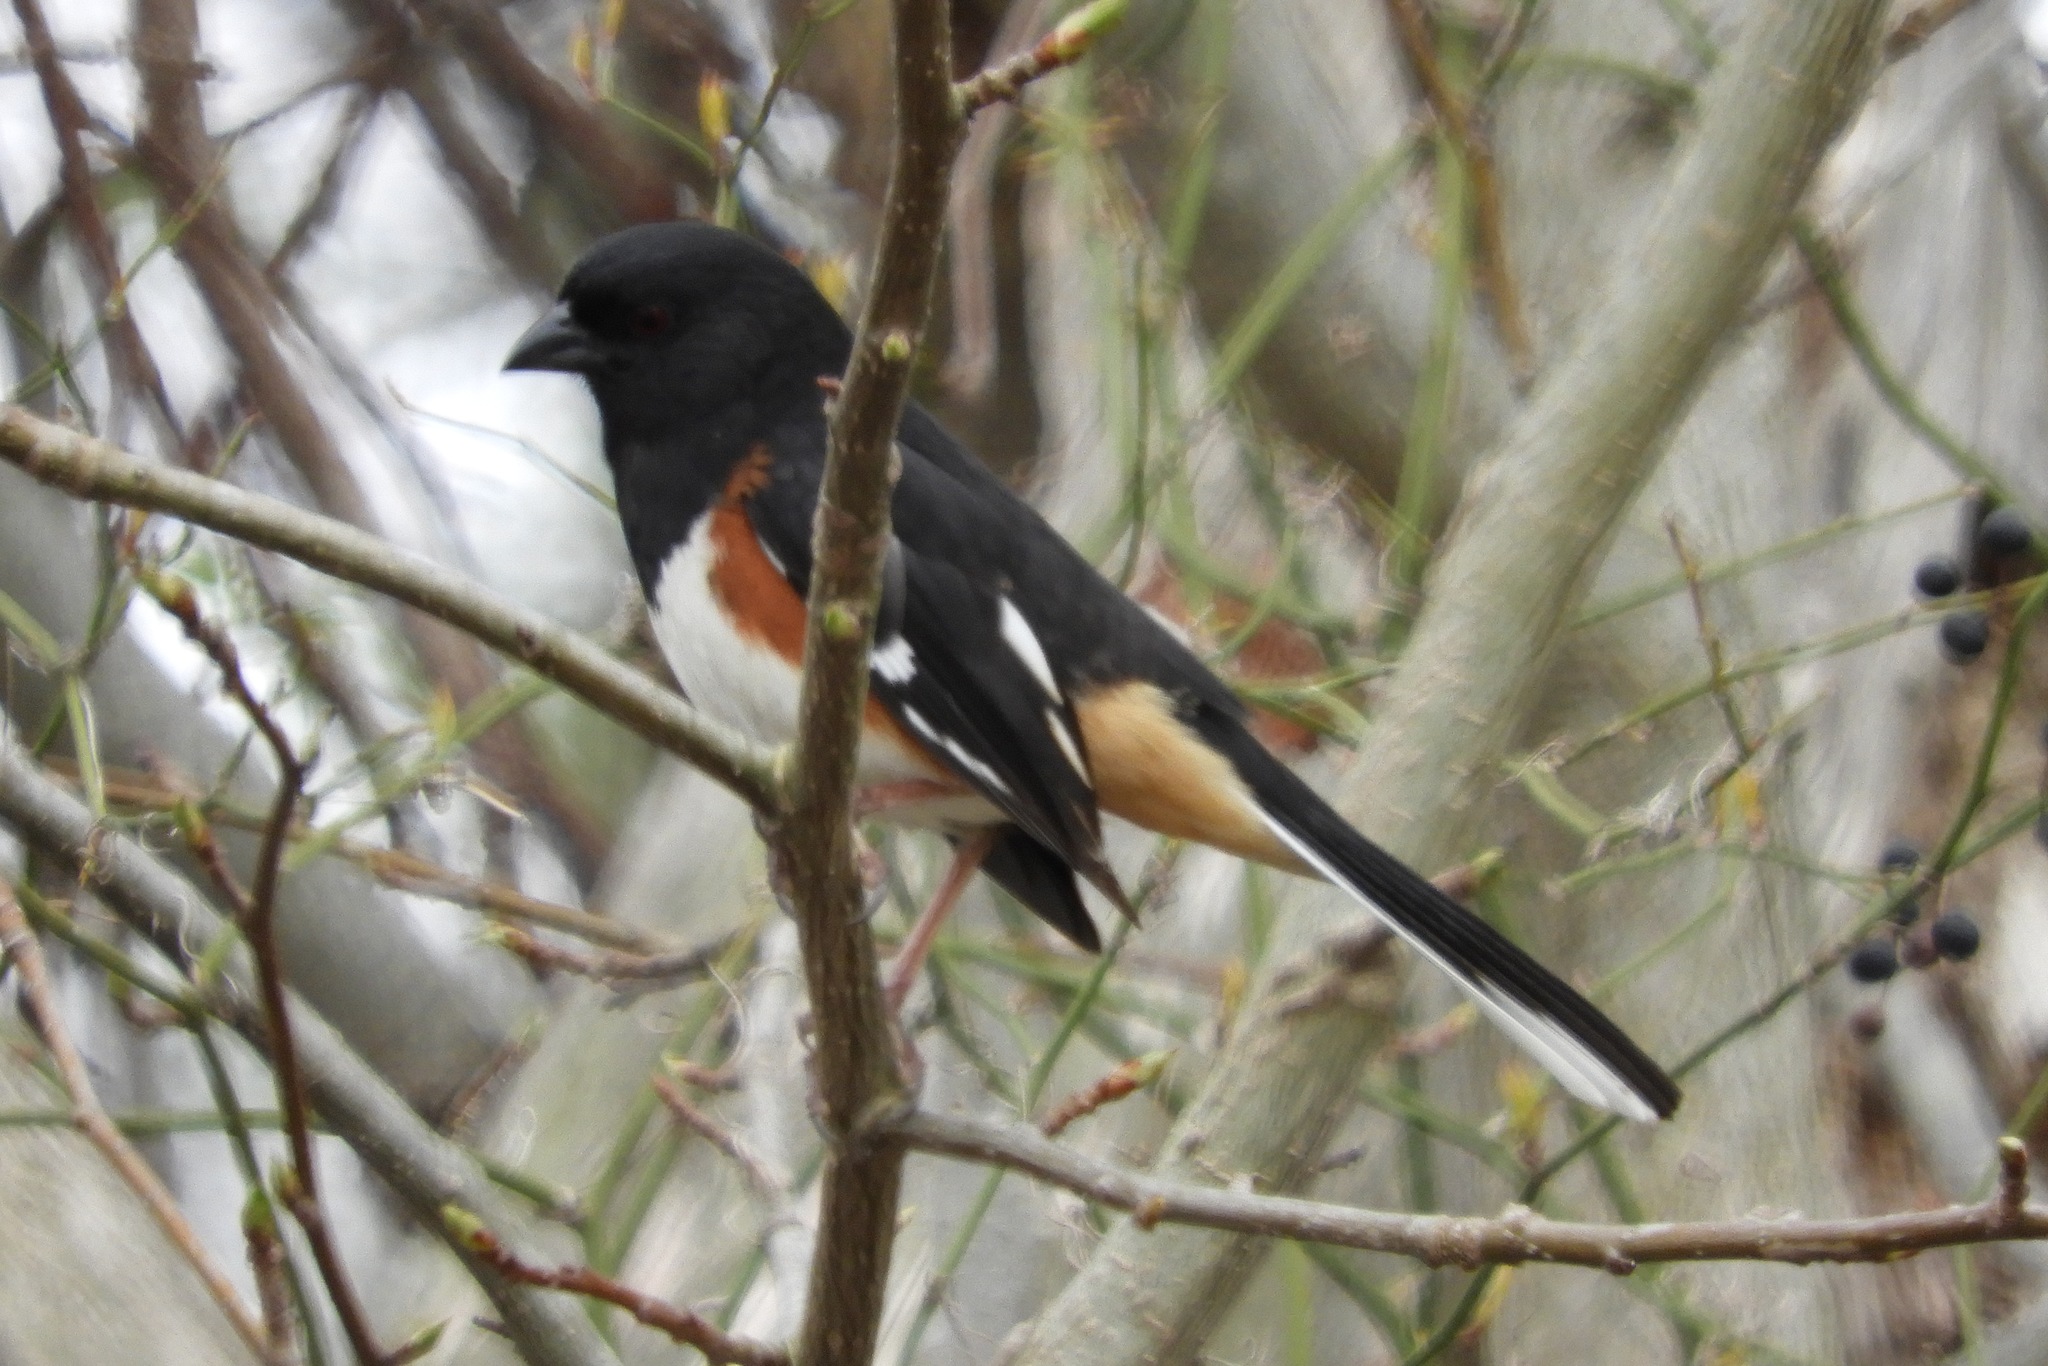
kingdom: Animalia
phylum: Chordata
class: Aves
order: Passeriformes
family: Passerellidae
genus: Pipilo
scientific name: Pipilo erythrophthalmus
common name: Eastern towhee
